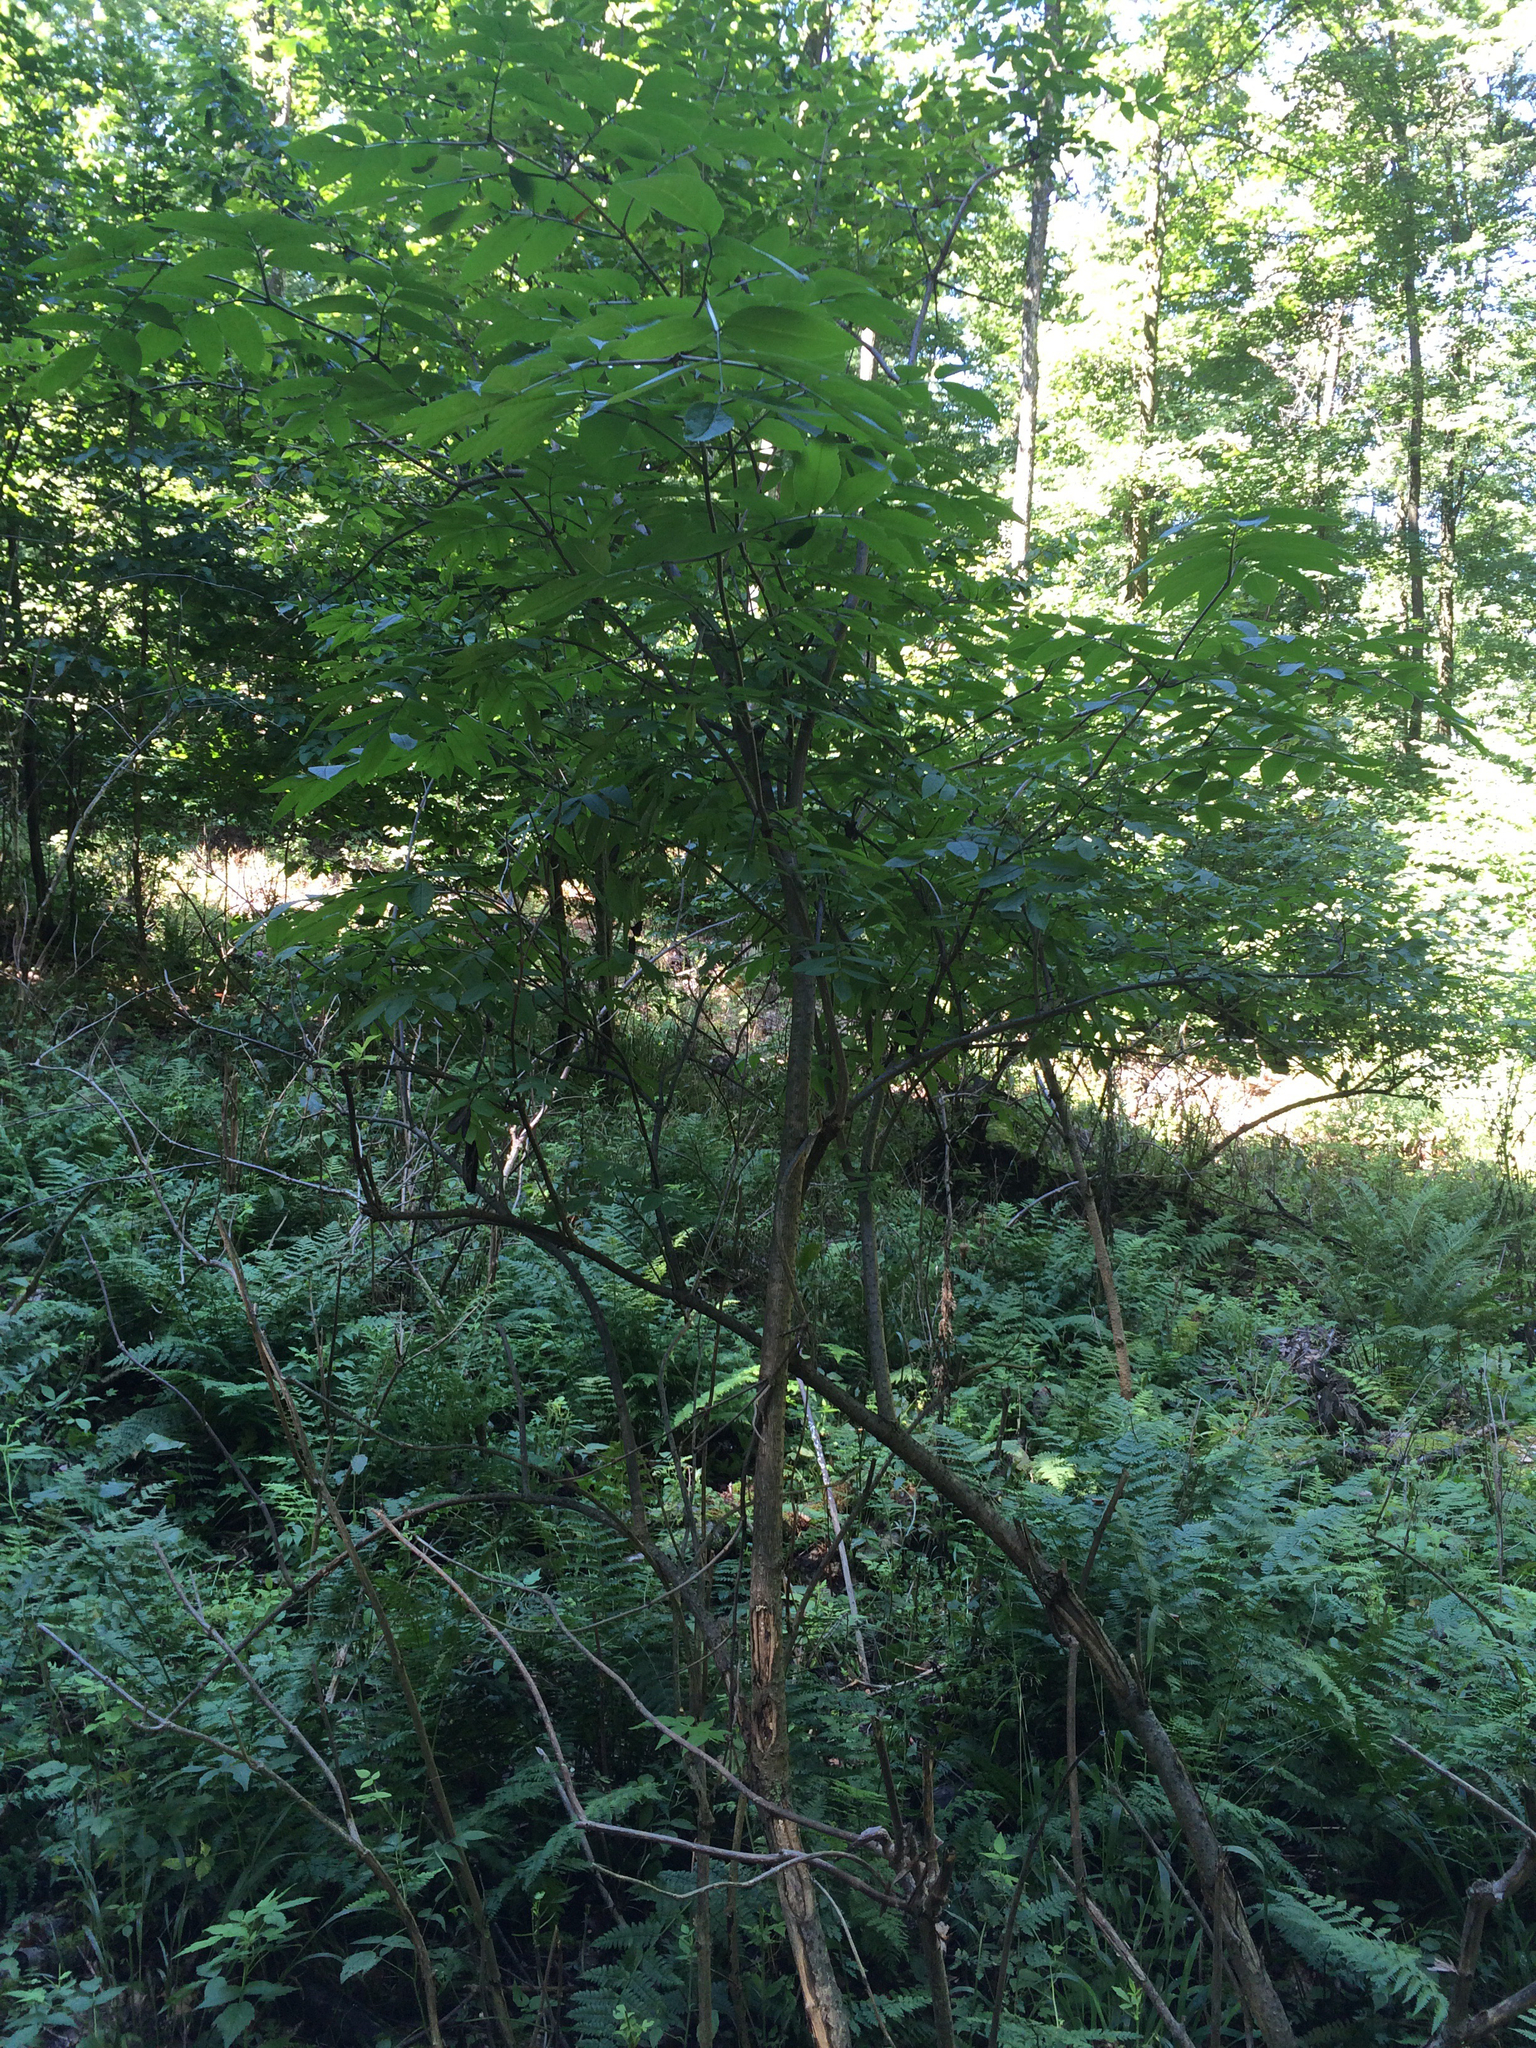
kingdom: Plantae
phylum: Tracheophyta
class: Magnoliopsida
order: Dipsacales
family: Viburnaceae
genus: Sambucus
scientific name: Sambucus racemosa
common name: Red-berried elder
